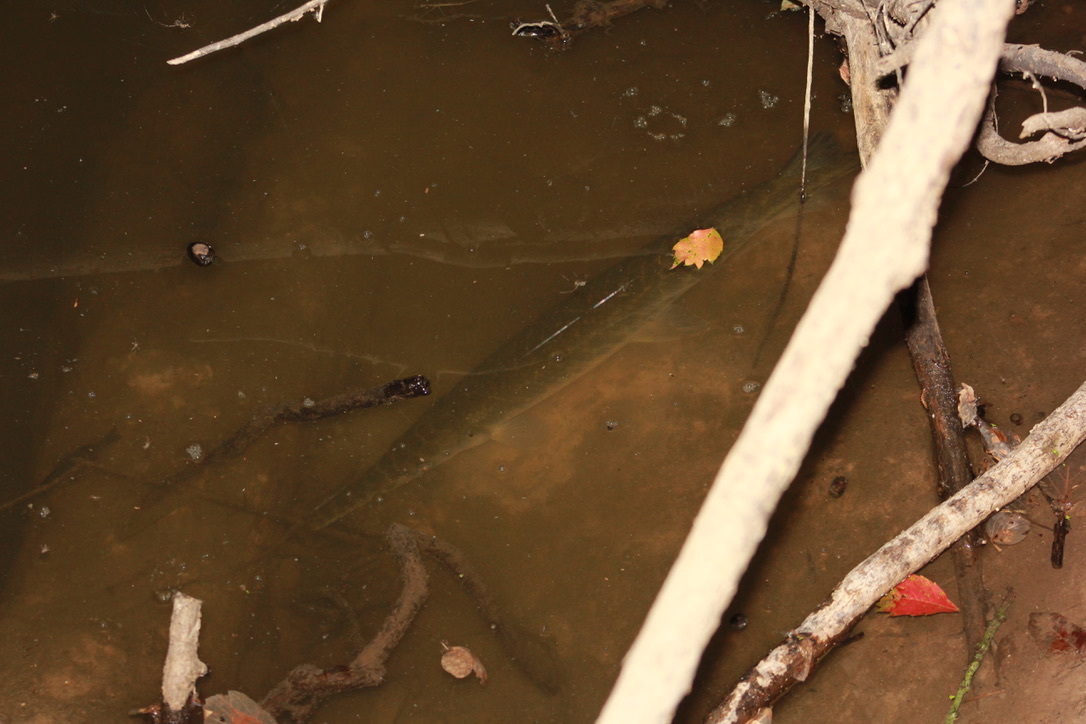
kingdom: Animalia
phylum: Chordata
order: Lepisosteiformes
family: Lepisosteidae
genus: Lepisosteus
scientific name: Lepisosteus oculatus
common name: Spotted gar
